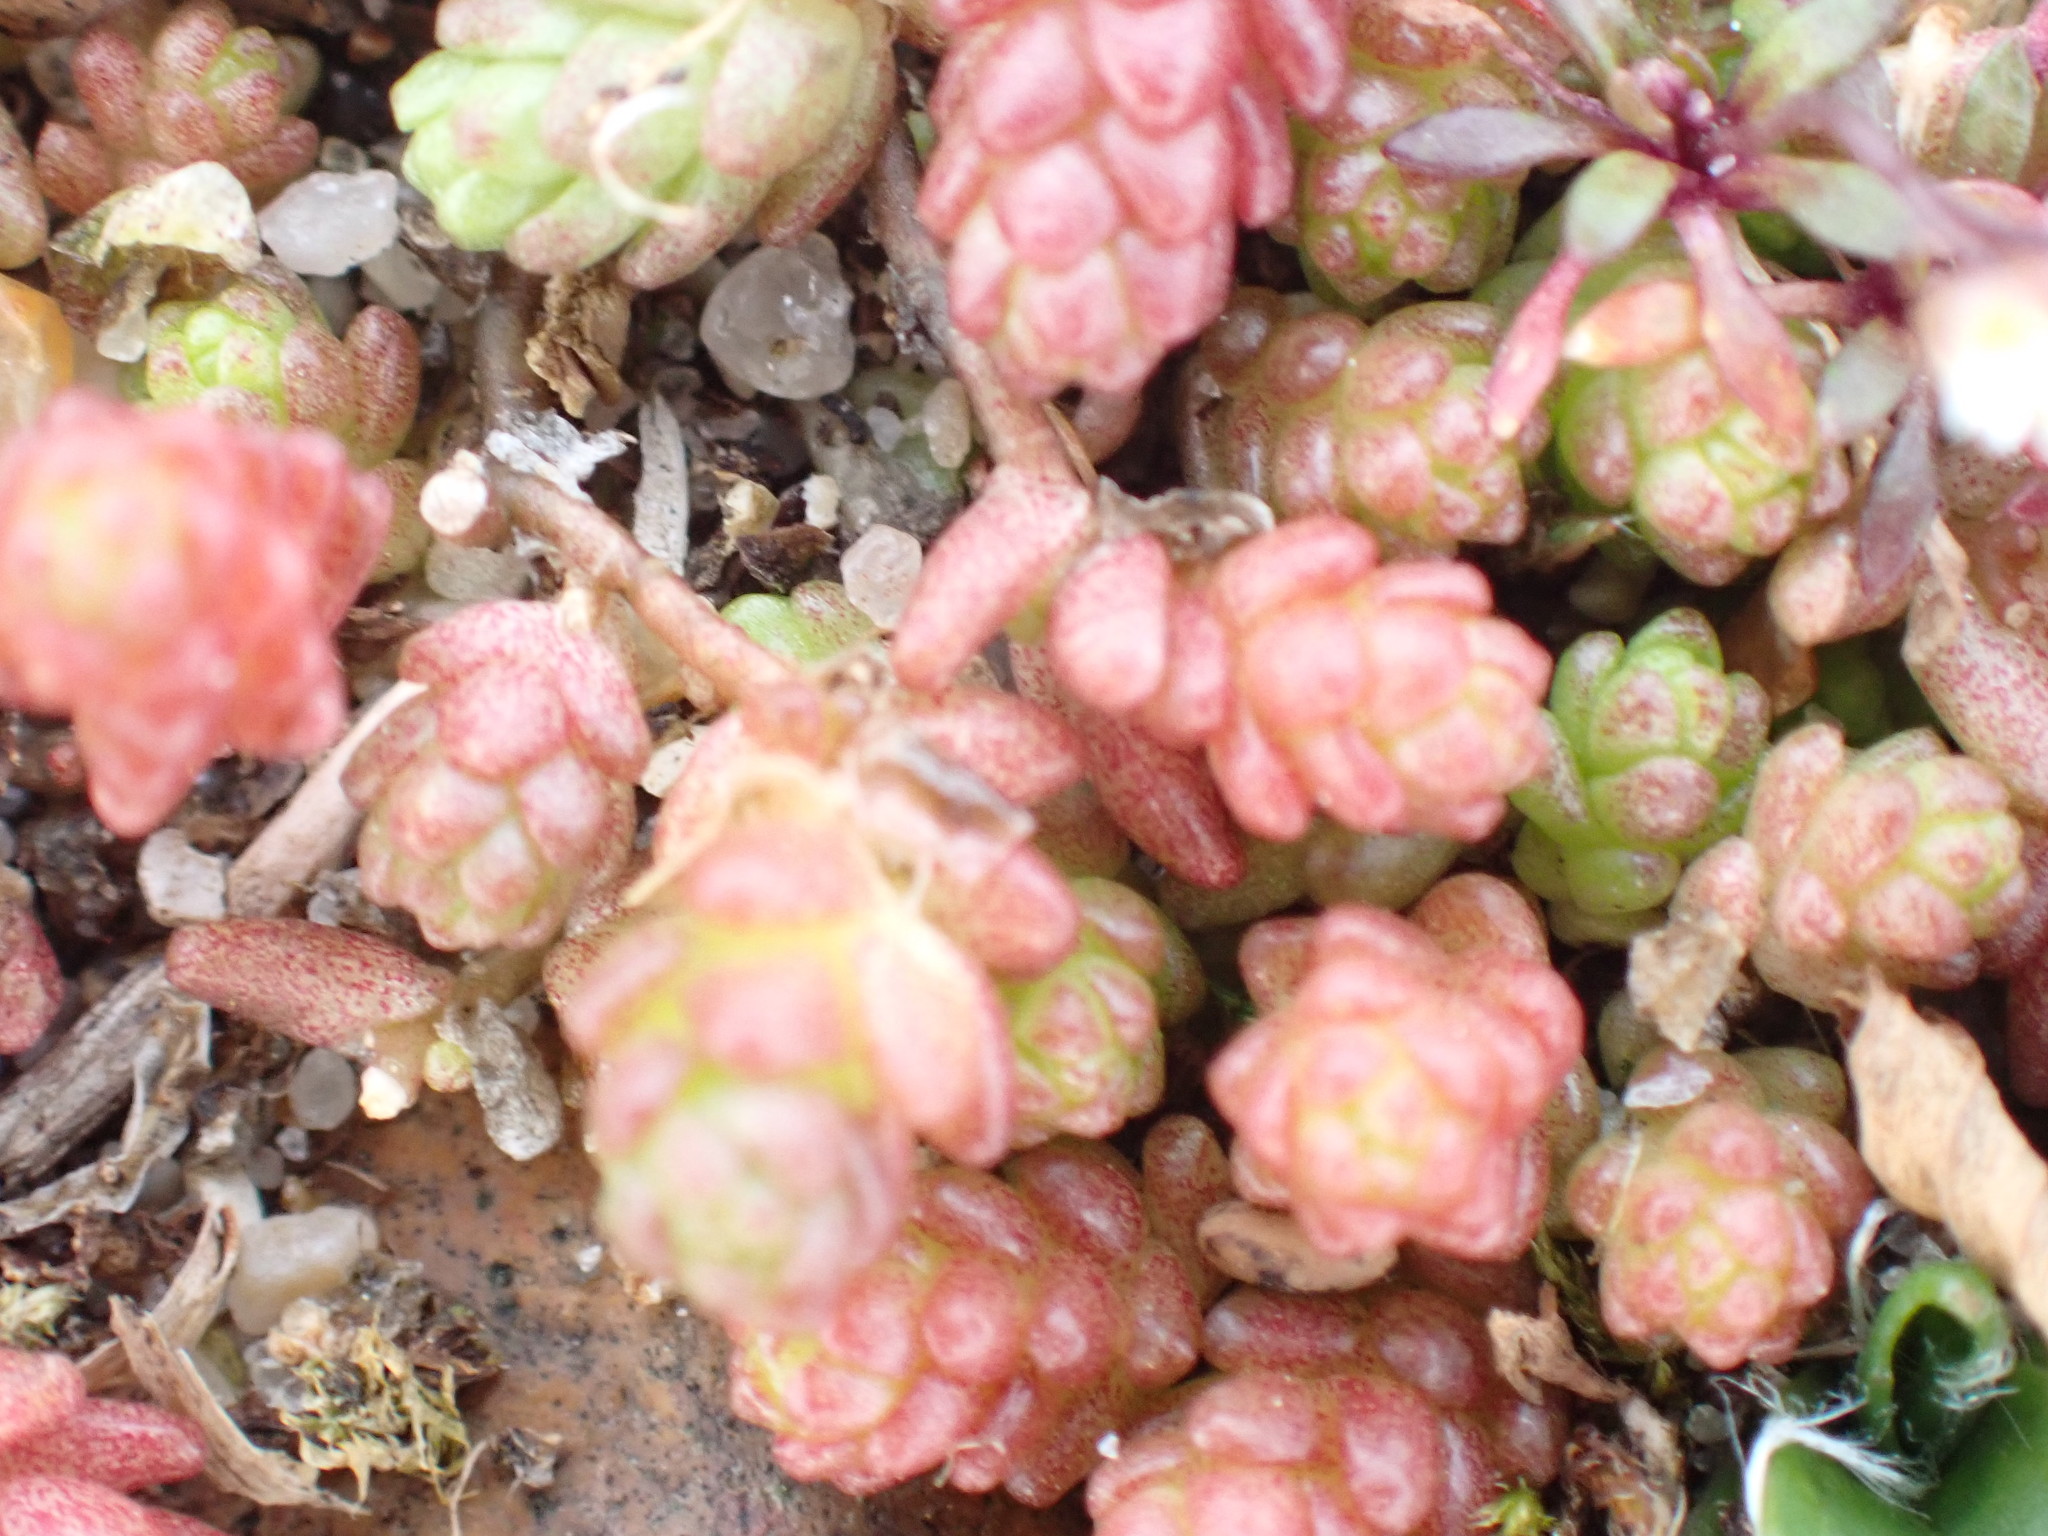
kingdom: Plantae
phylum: Tracheophyta
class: Magnoliopsida
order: Saxifragales
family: Crassulaceae
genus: Sedum
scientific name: Sedum acre
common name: Biting stonecrop
